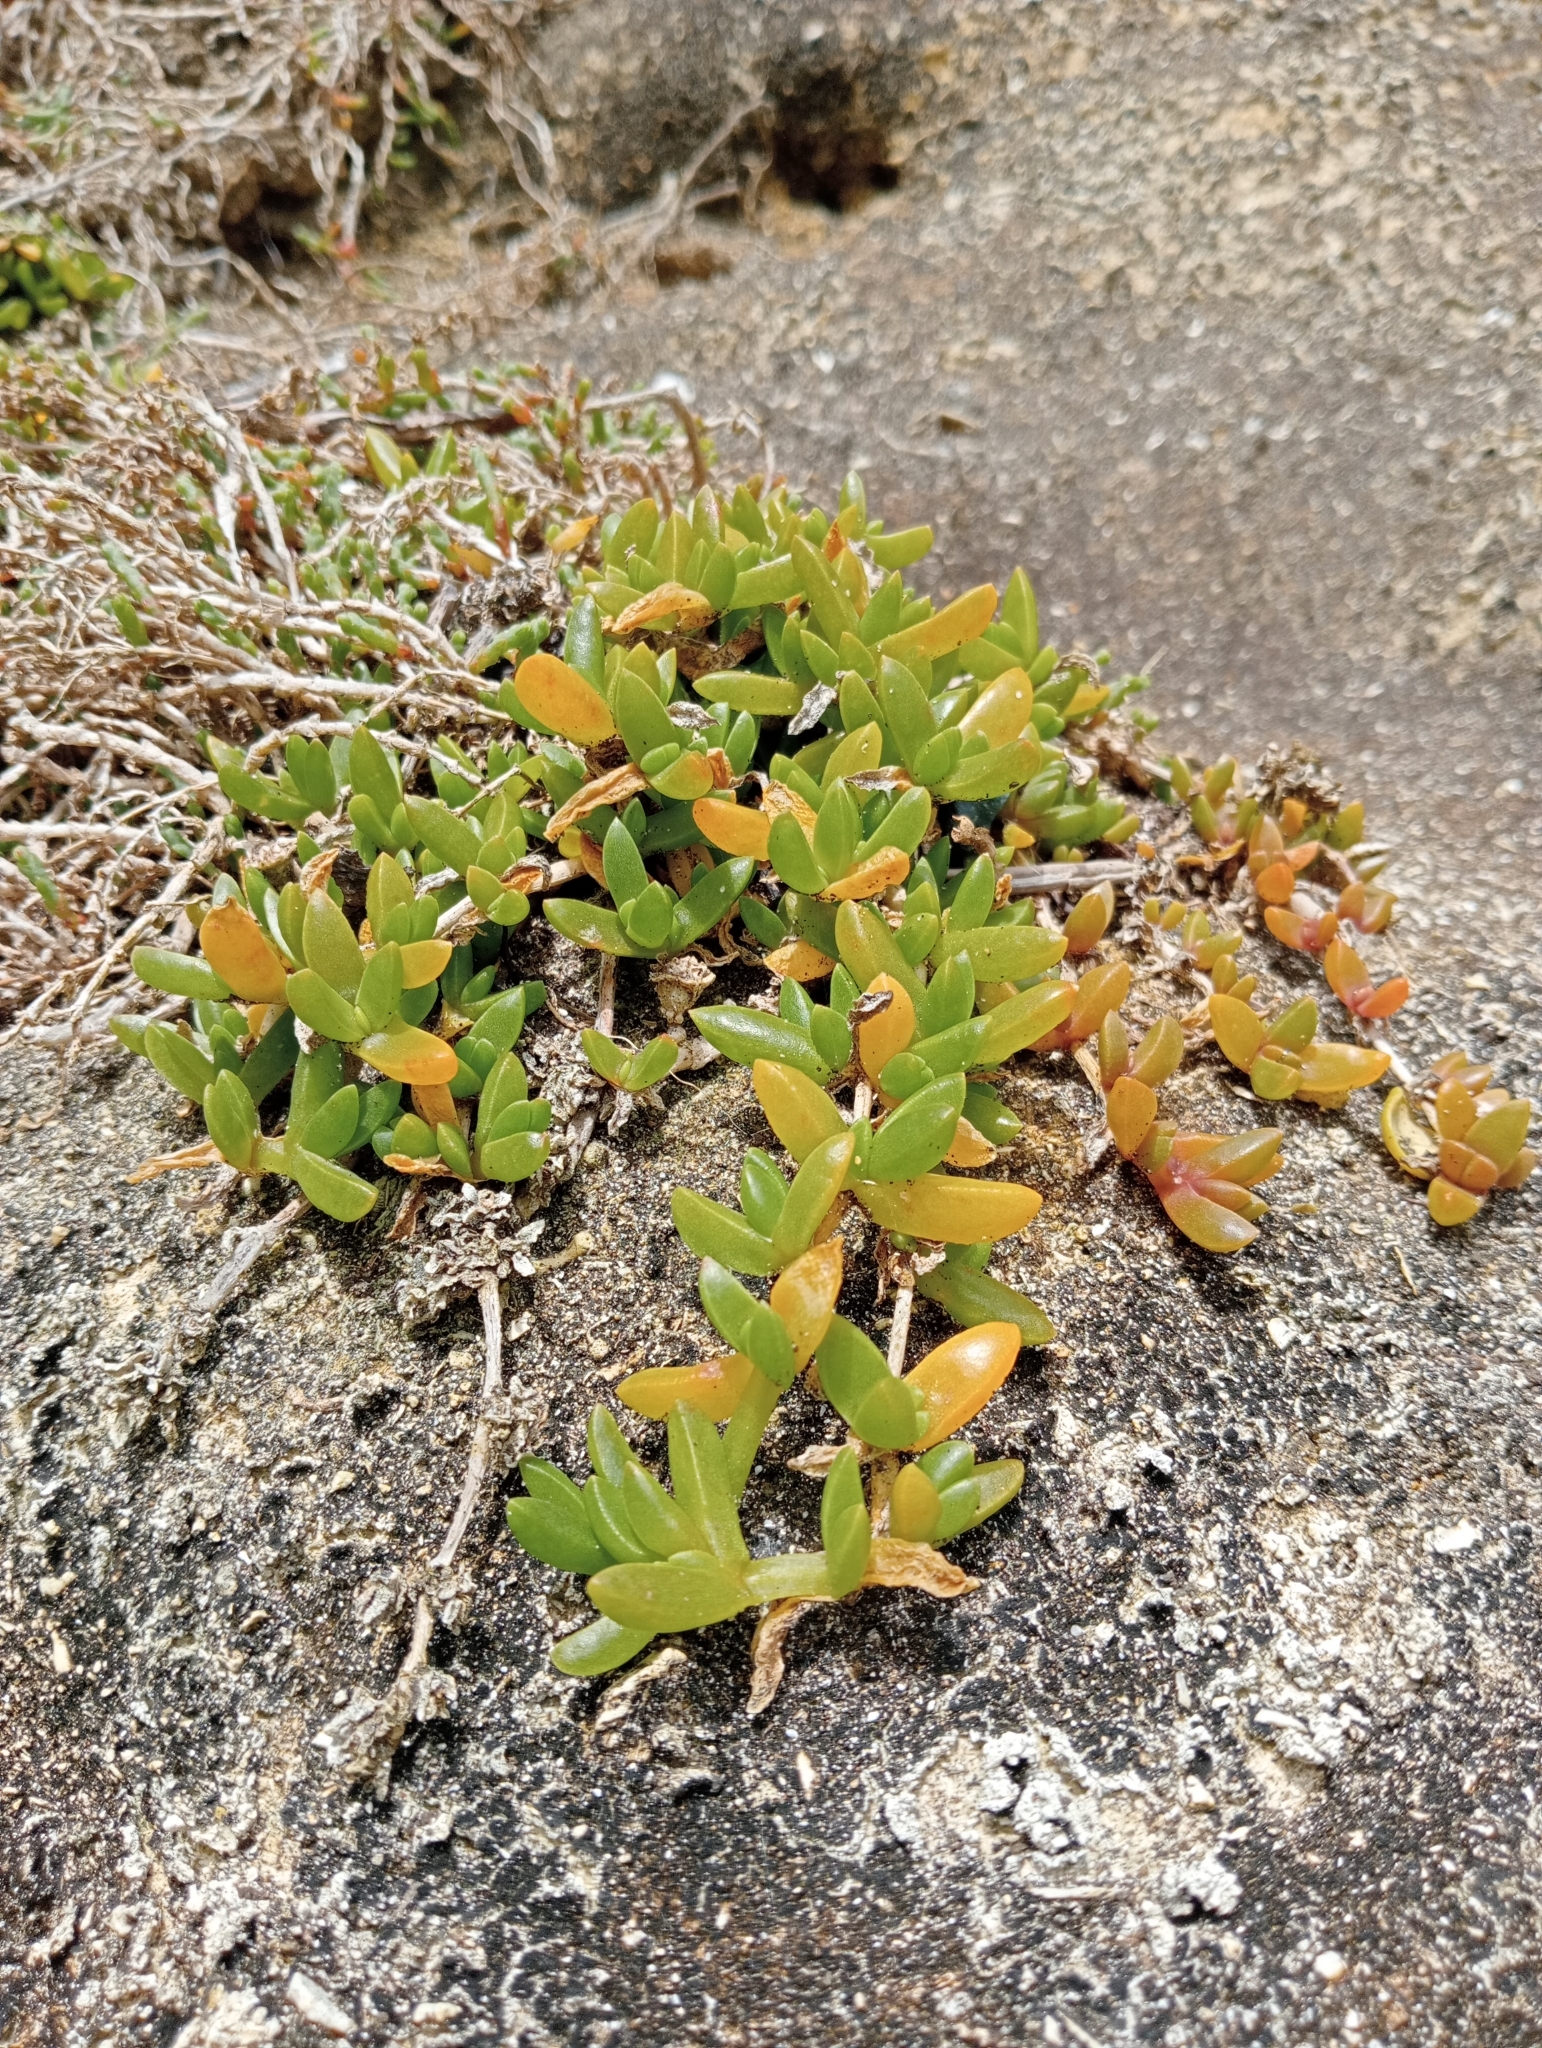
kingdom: Plantae
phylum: Tracheophyta
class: Magnoliopsida
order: Caryophyllales
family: Aizoaceae
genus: Disphyma
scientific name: Disphyma australe
